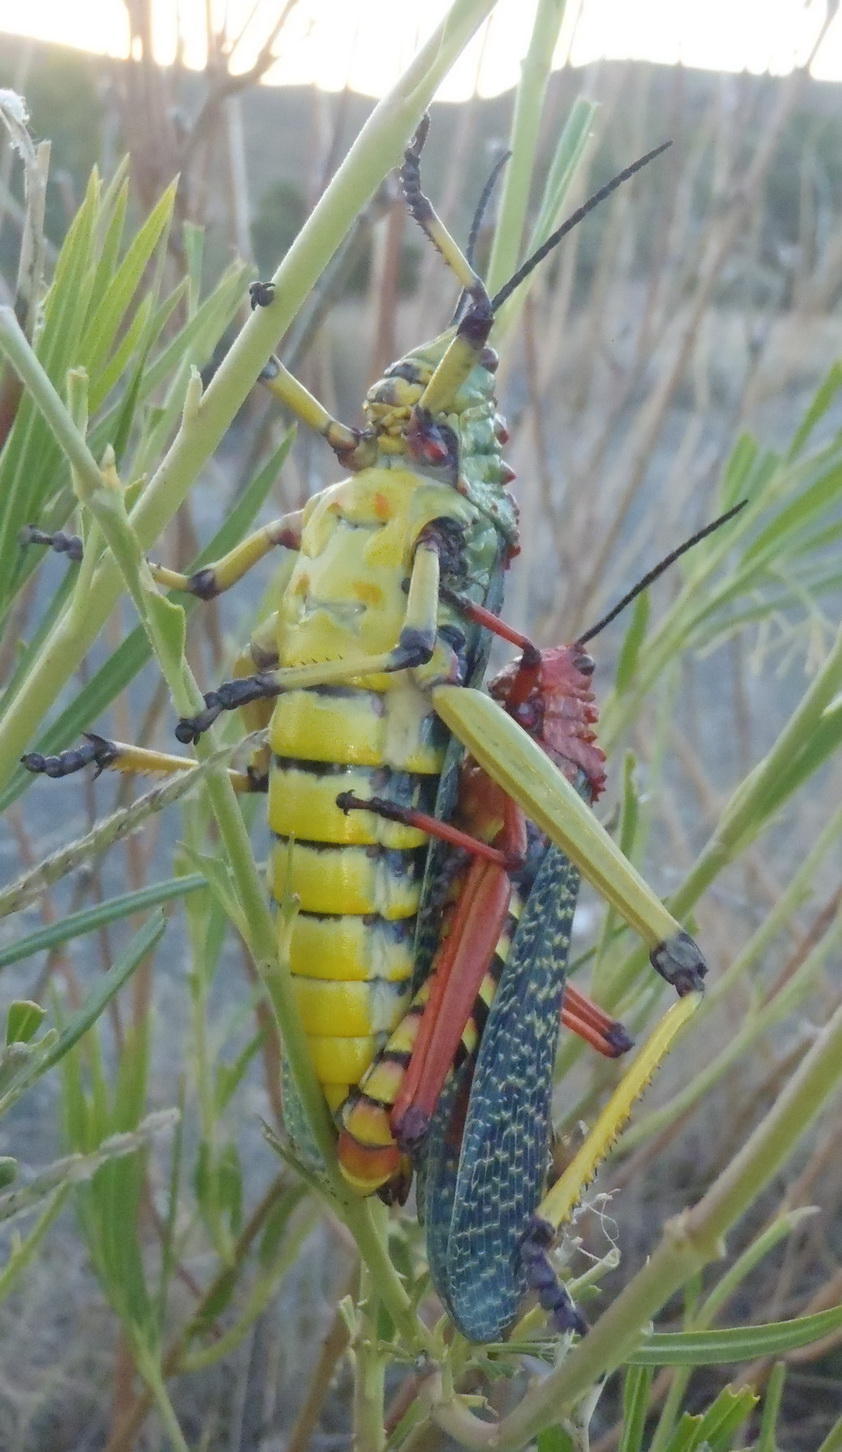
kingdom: Animalia
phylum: Arthropoda
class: Insecta
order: Orthoptera
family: Pyrgomorphidae
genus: Phymateus
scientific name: Phymateus morbillosus
